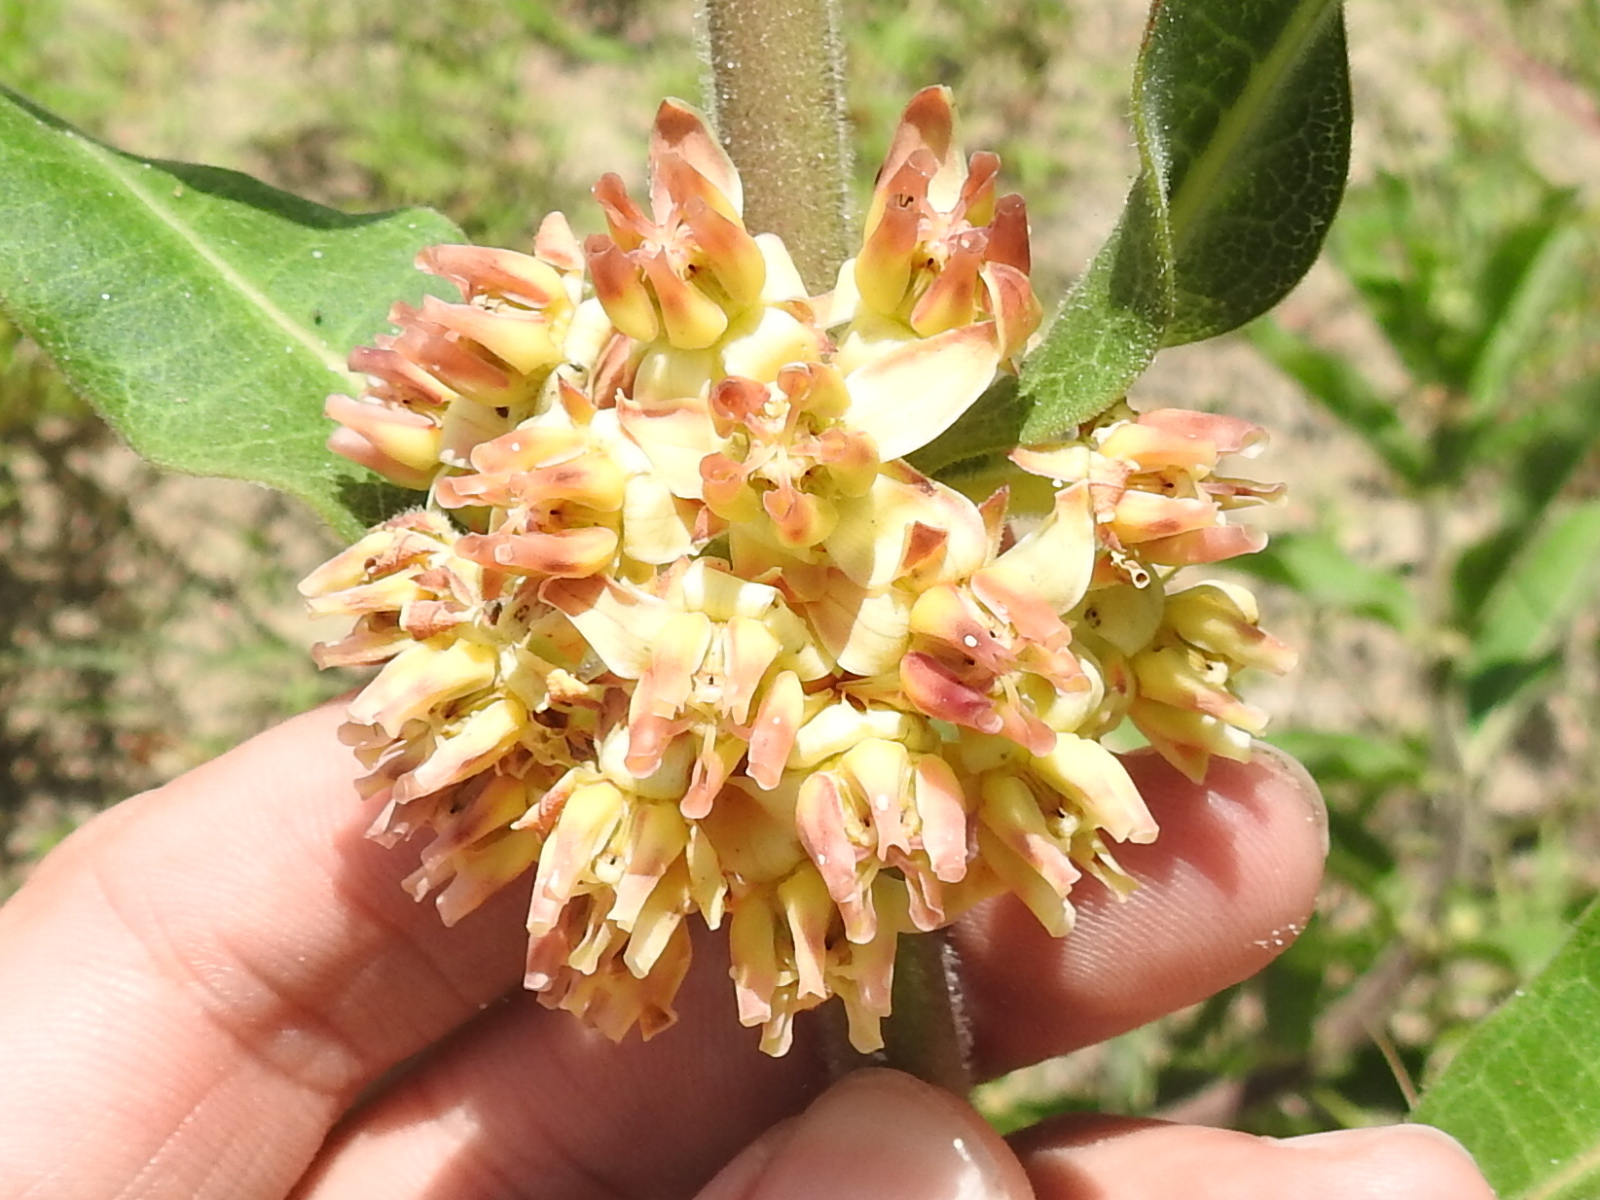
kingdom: Plantae
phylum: Tracheophyta
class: Magnoliopsida
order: Gentianales
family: Apocynaceae
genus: Asclepias
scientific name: Asclepias obovata
